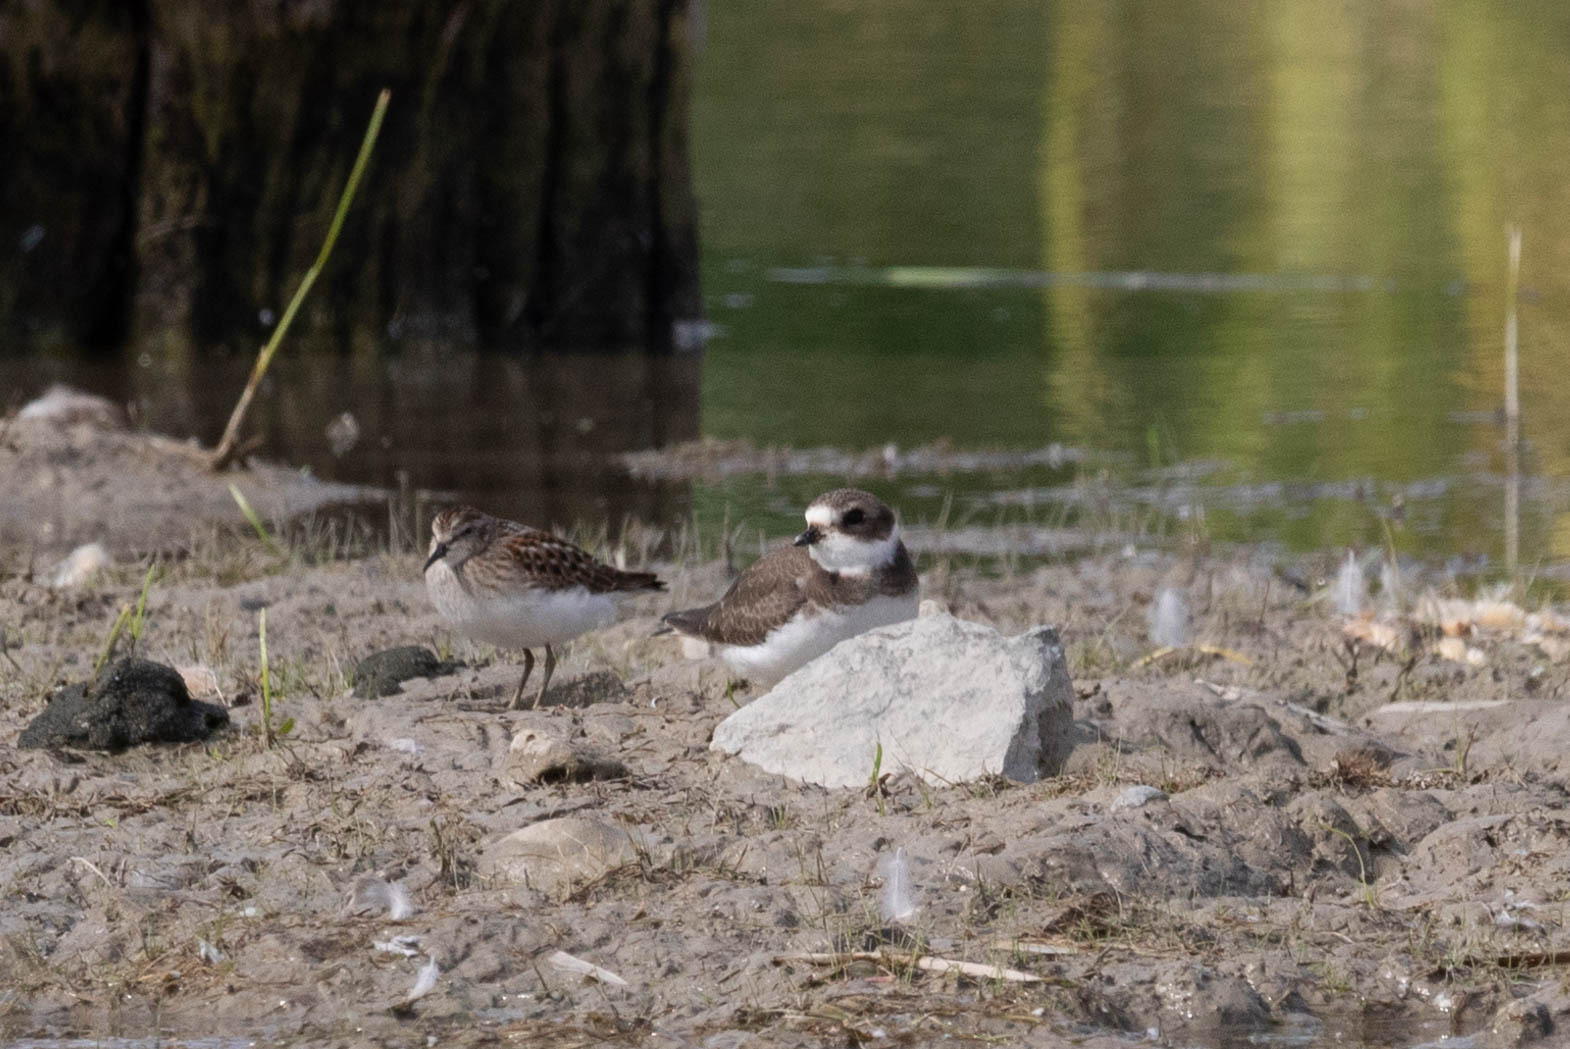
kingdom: Animalia
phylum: Chordata
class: Aves
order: Charadriiformes
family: Charadriidae
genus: Charadrius
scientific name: Charadrius semipalmatus
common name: Semipalmated plover
